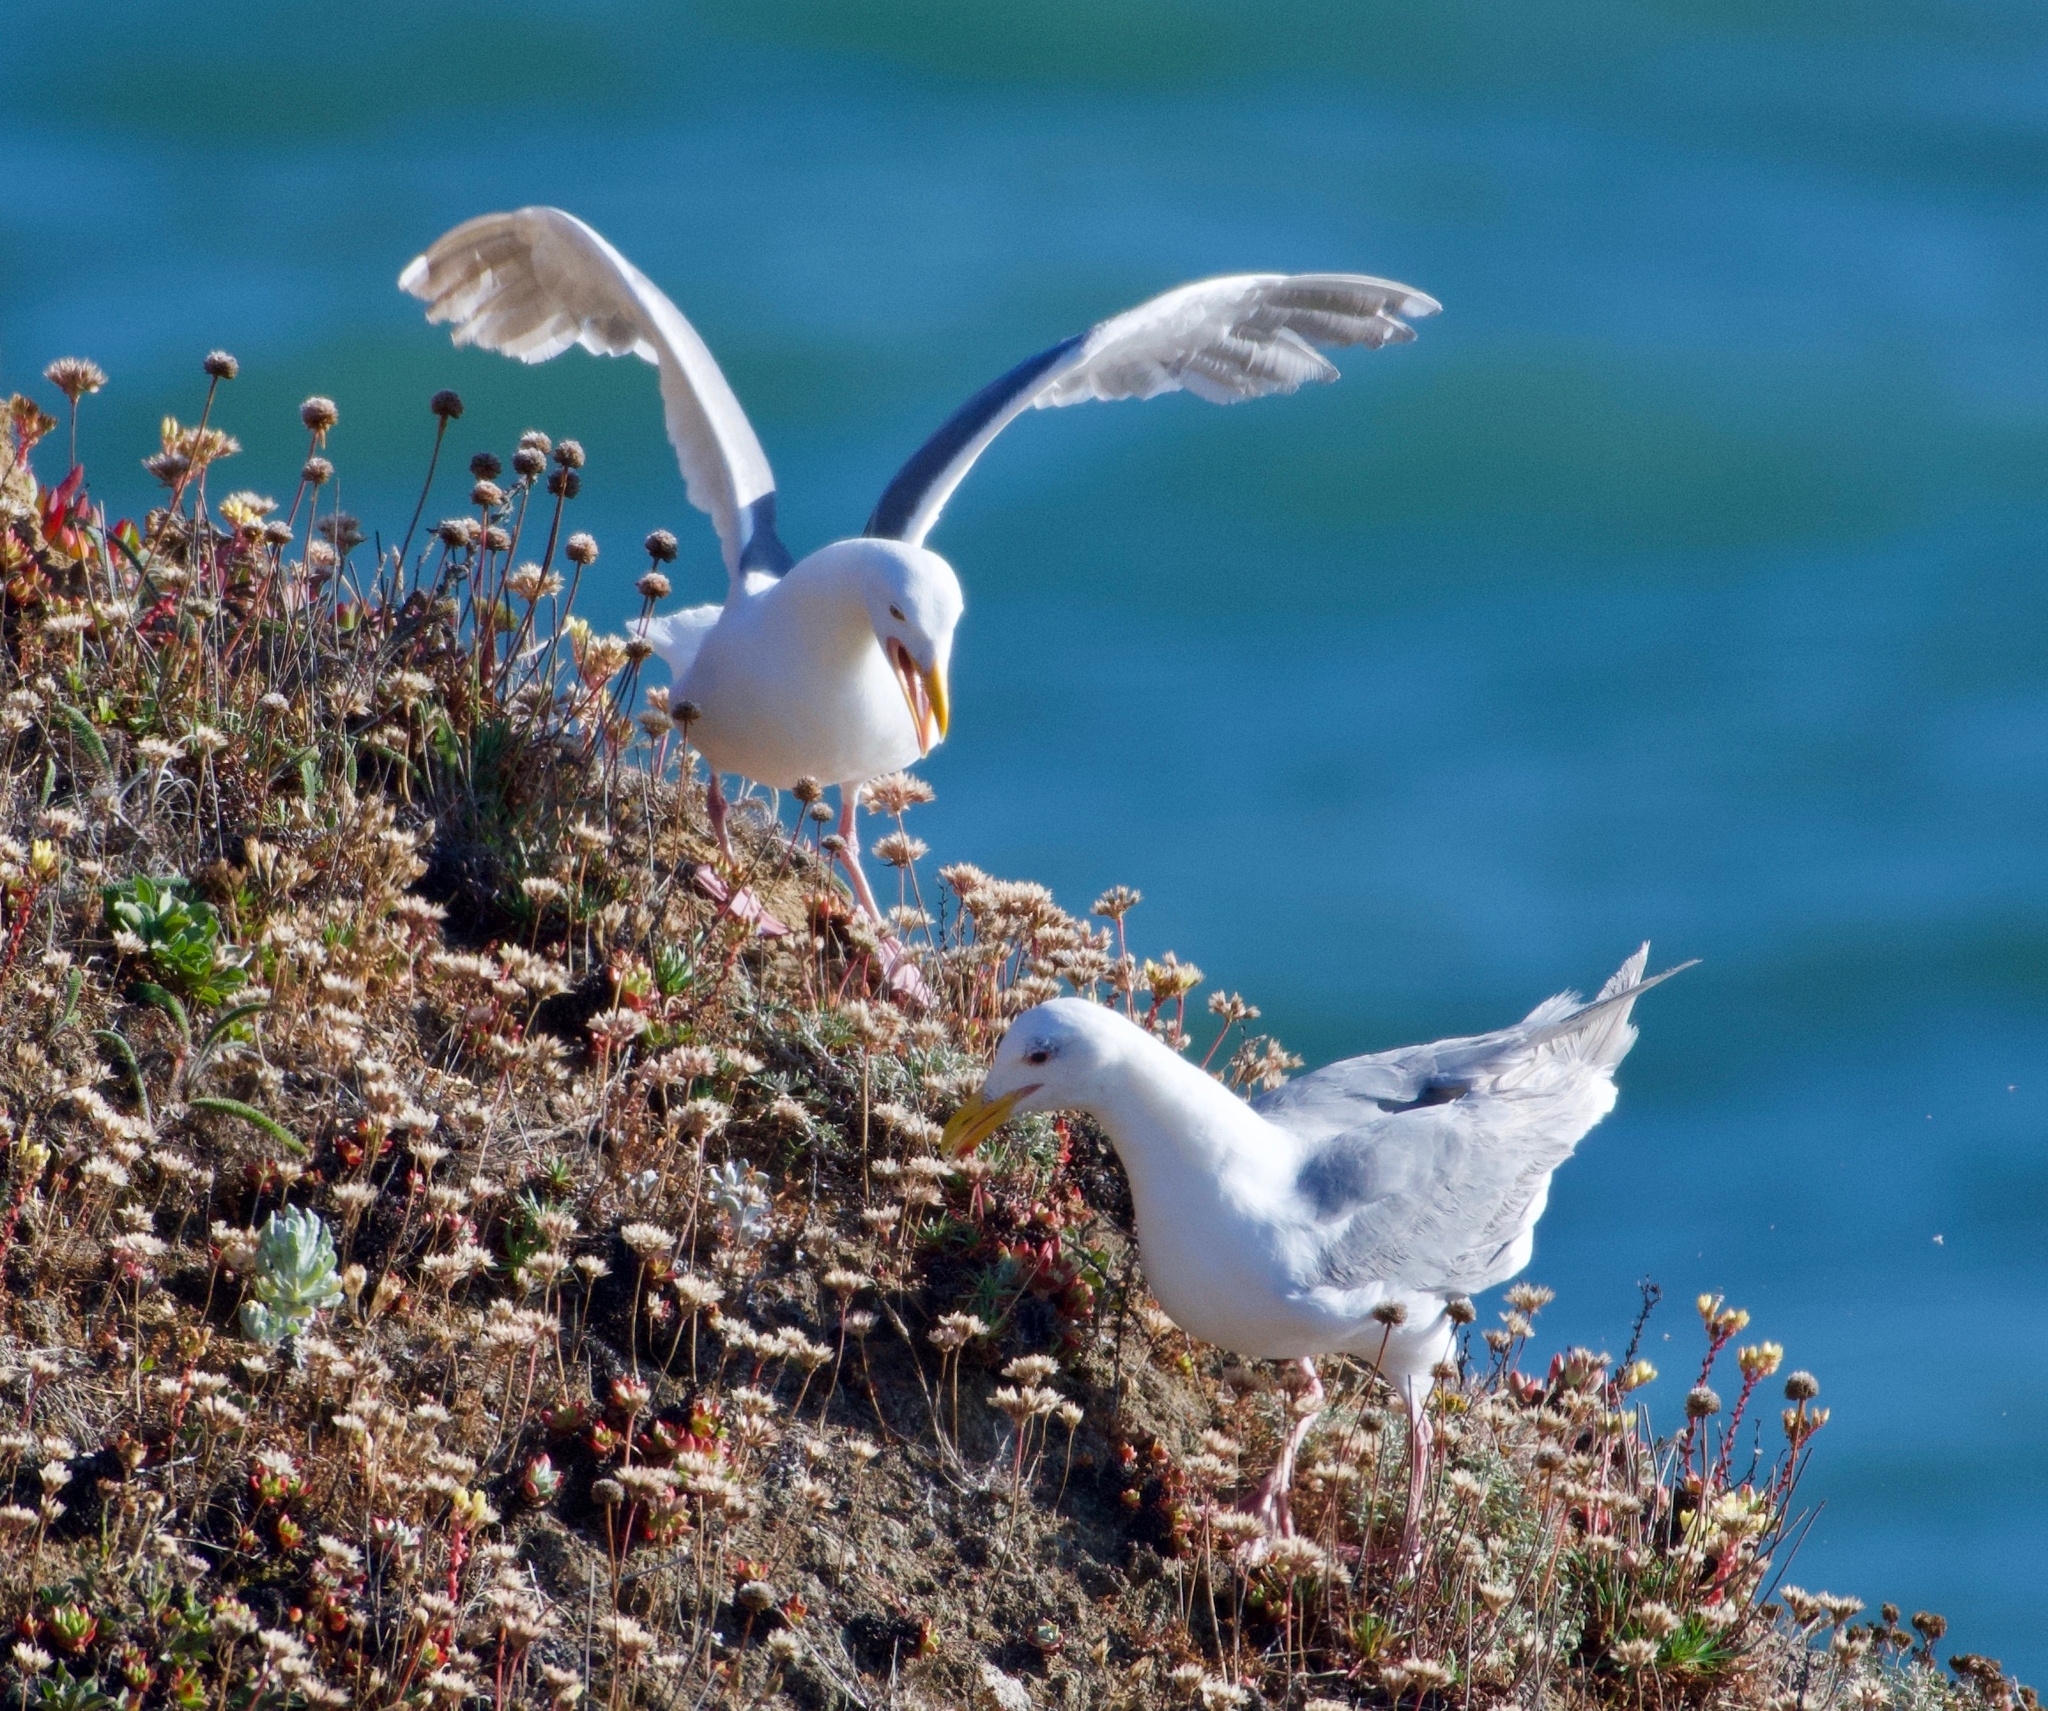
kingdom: Animalia
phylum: Chordata
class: Aves
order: Charadriiformes
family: Laridae
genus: Larus
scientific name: Larus occidentalis
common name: Western gull
